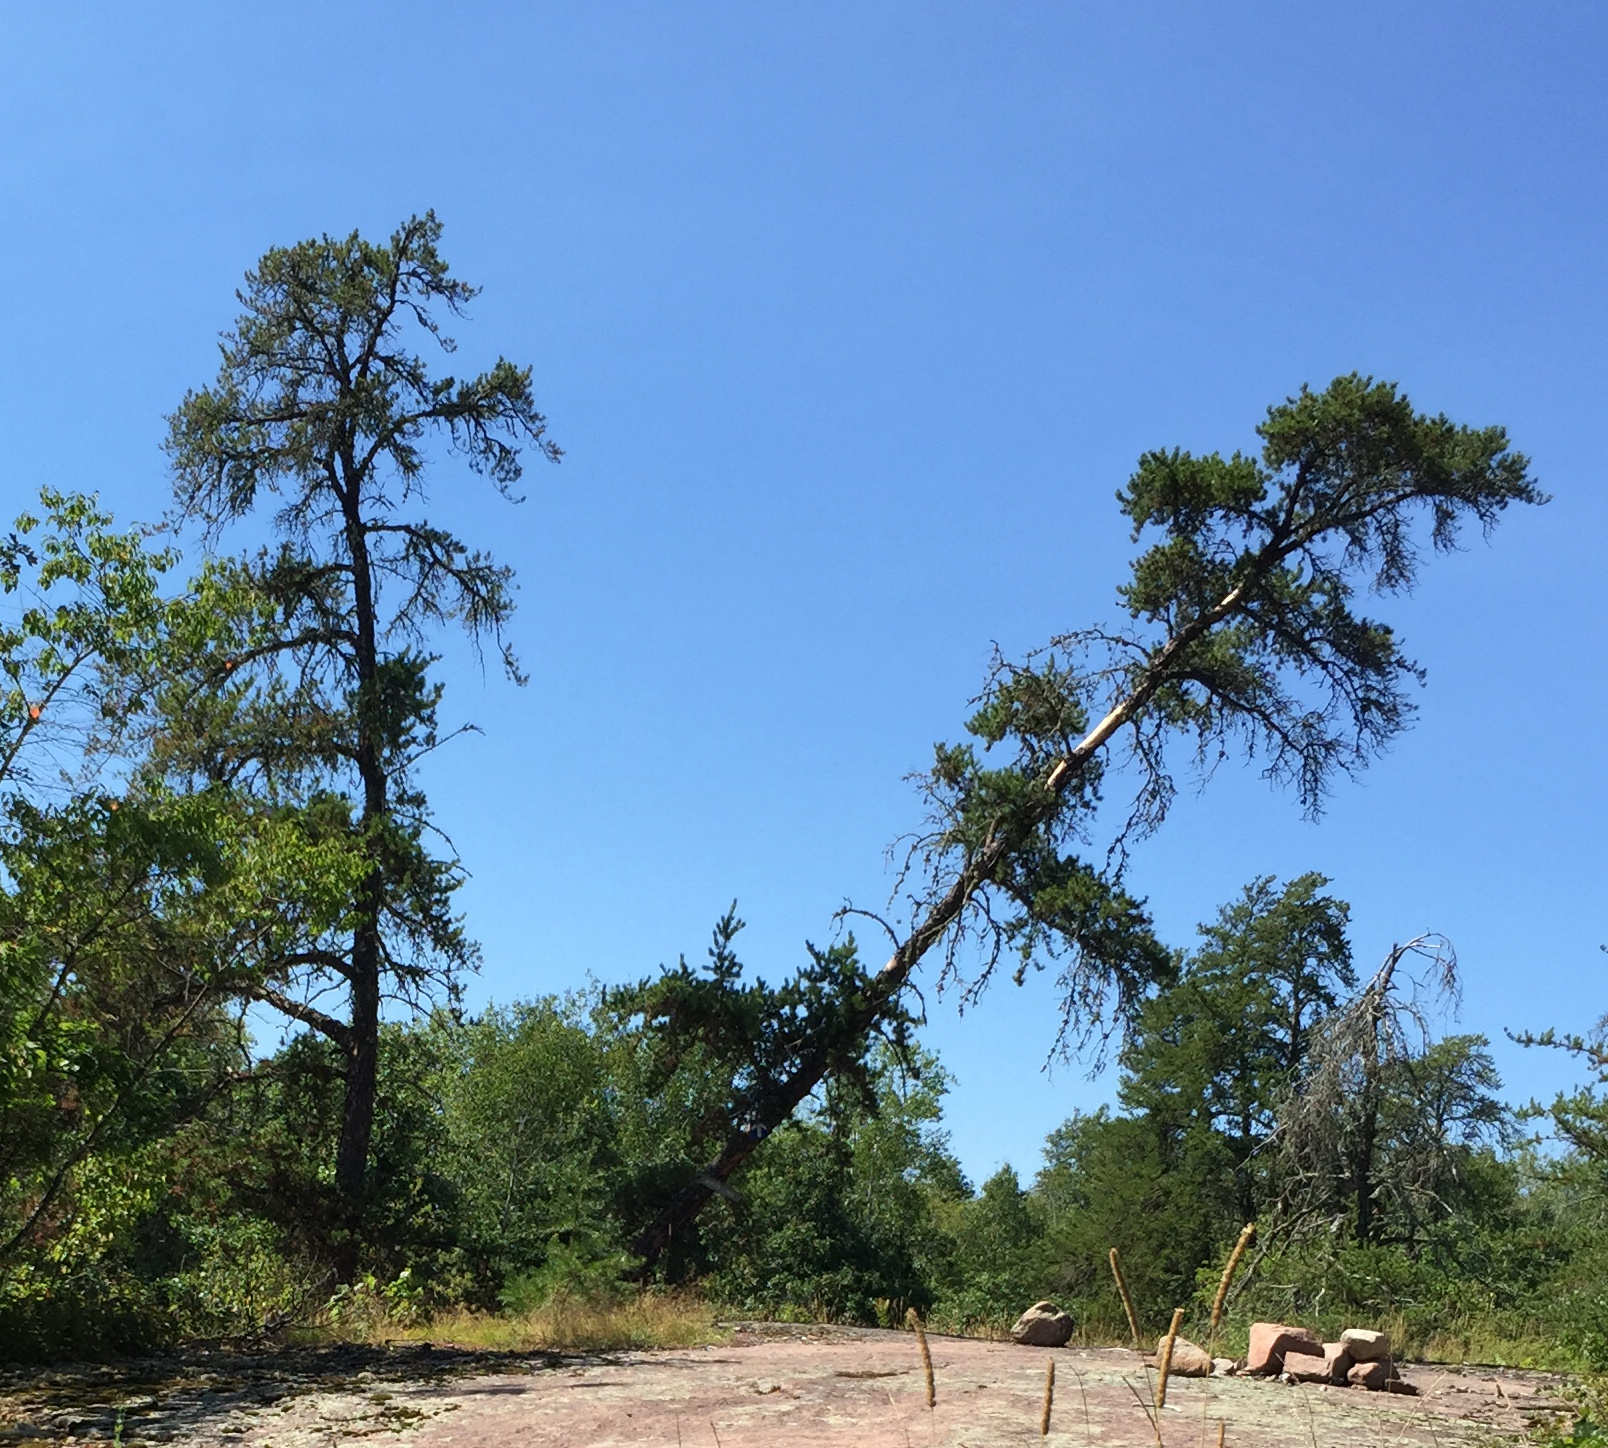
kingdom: Plantae
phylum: Tracheophyta
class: Pinopsida
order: Pinales
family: Pinaceae
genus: Pinus
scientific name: Pinus banksiana
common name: Jack pine
